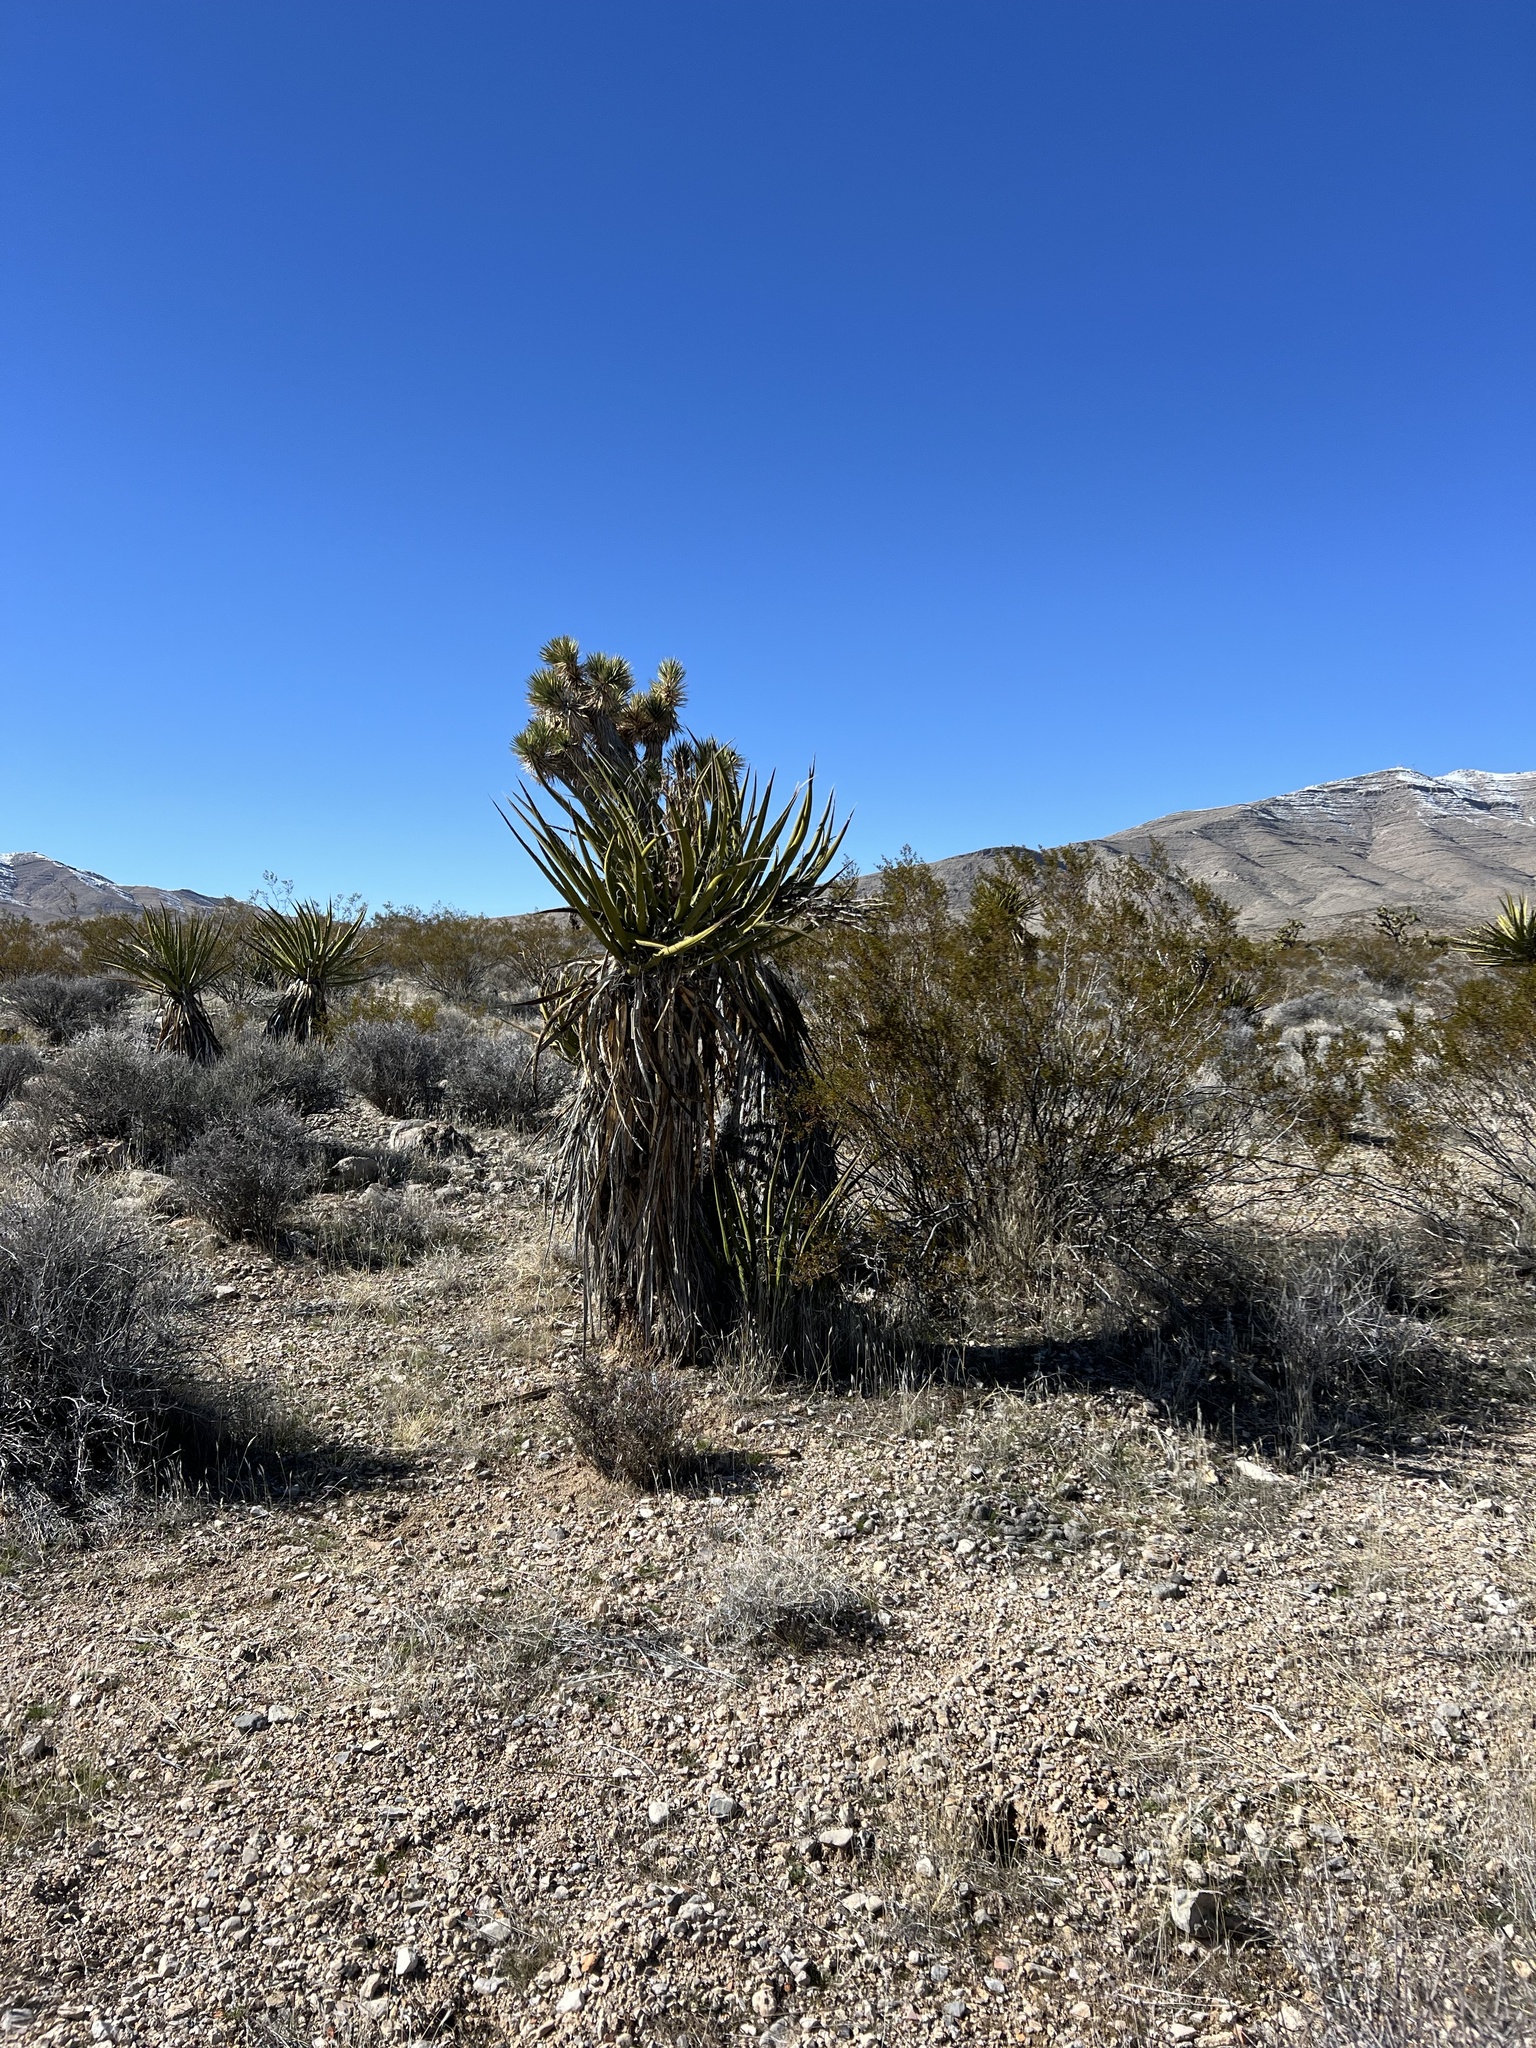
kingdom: Plantae
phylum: Tracheophyta
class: Liliopsida
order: Asparagales
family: Asparagaceae
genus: Yucca
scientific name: Yucca schidigera
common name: Mojave yucca
